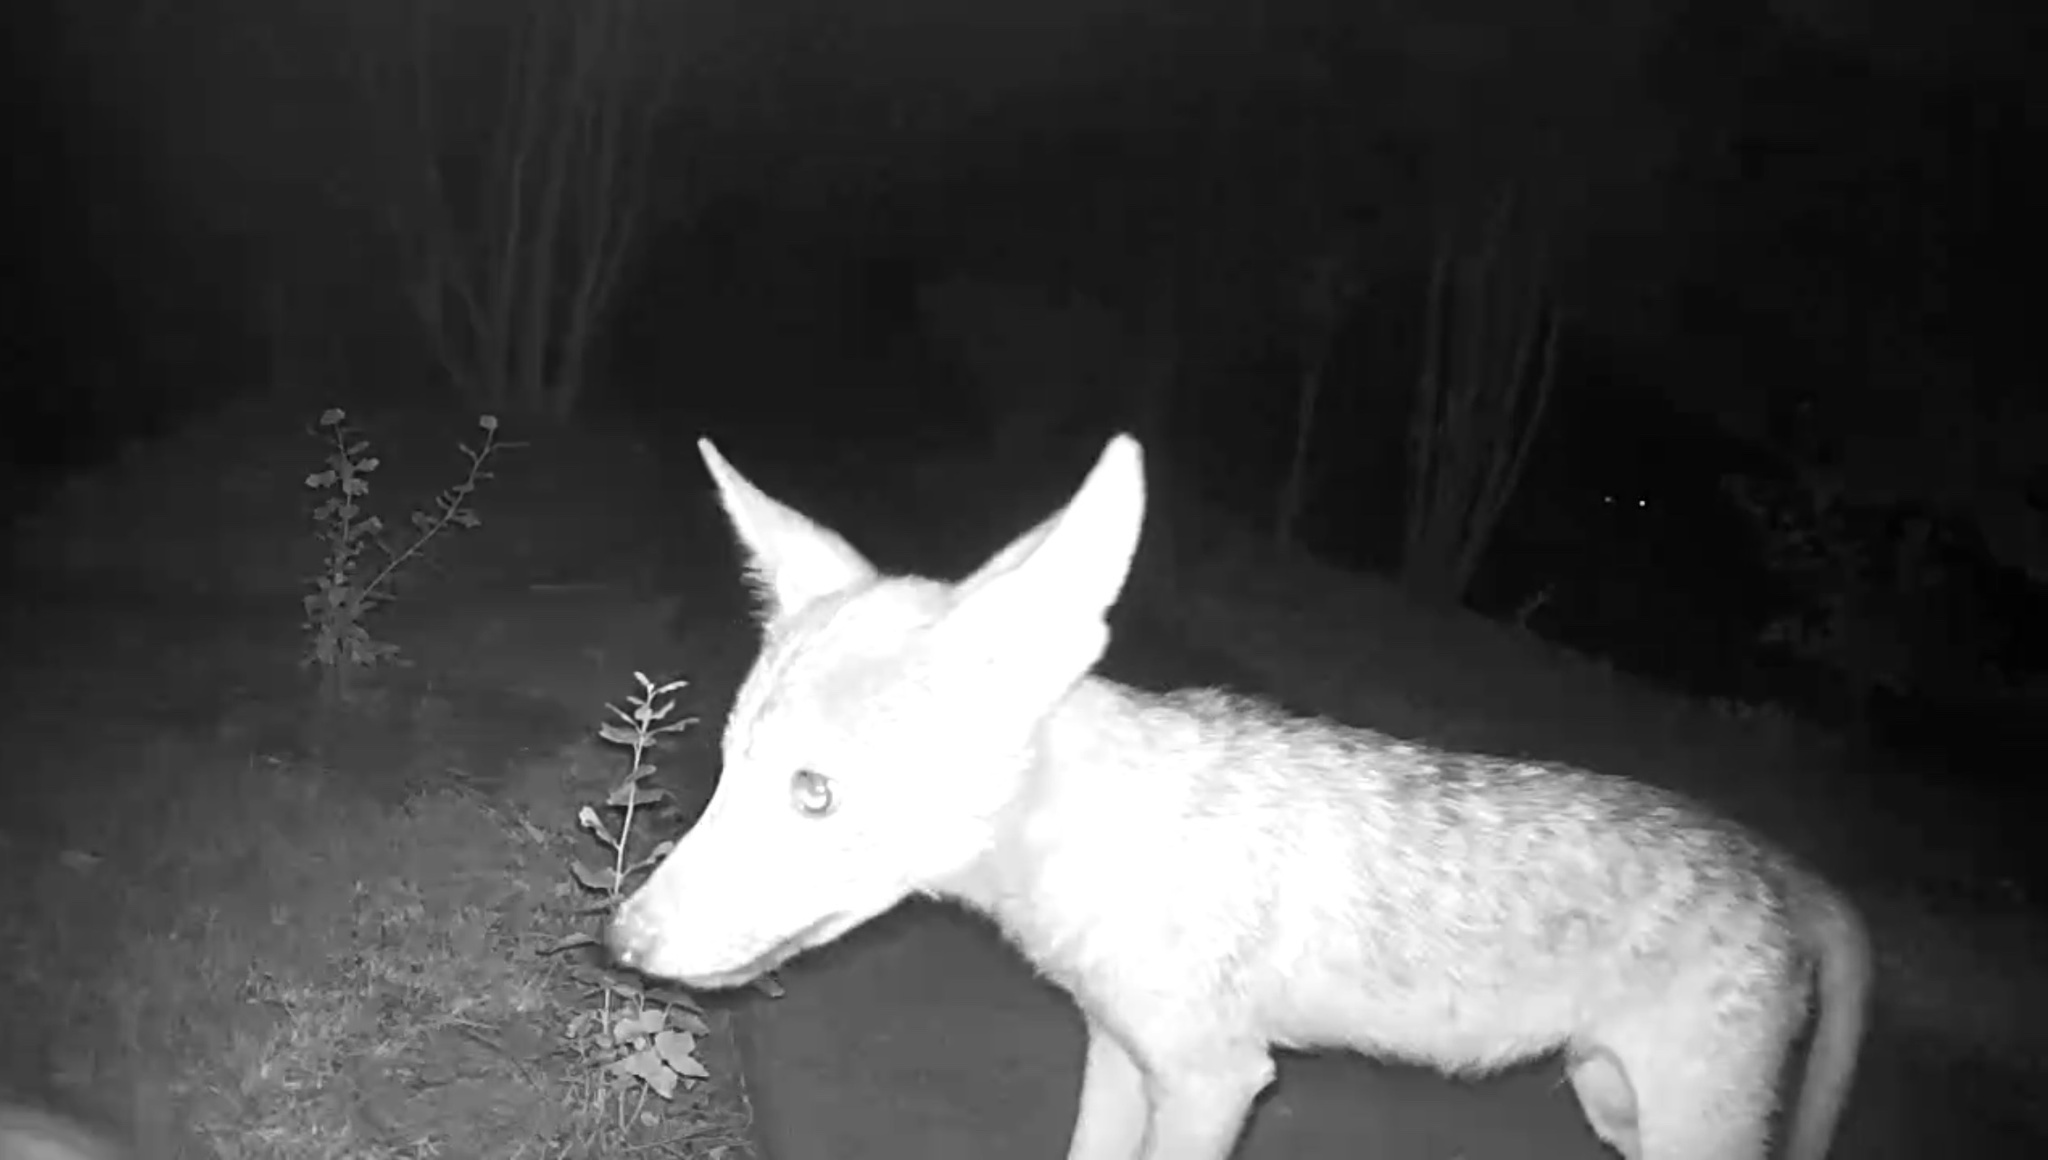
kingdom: Animalia
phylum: Chordata
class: Mammalia
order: Carnivora
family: Canidae
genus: Canis
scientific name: Canis latrans
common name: Coyote
